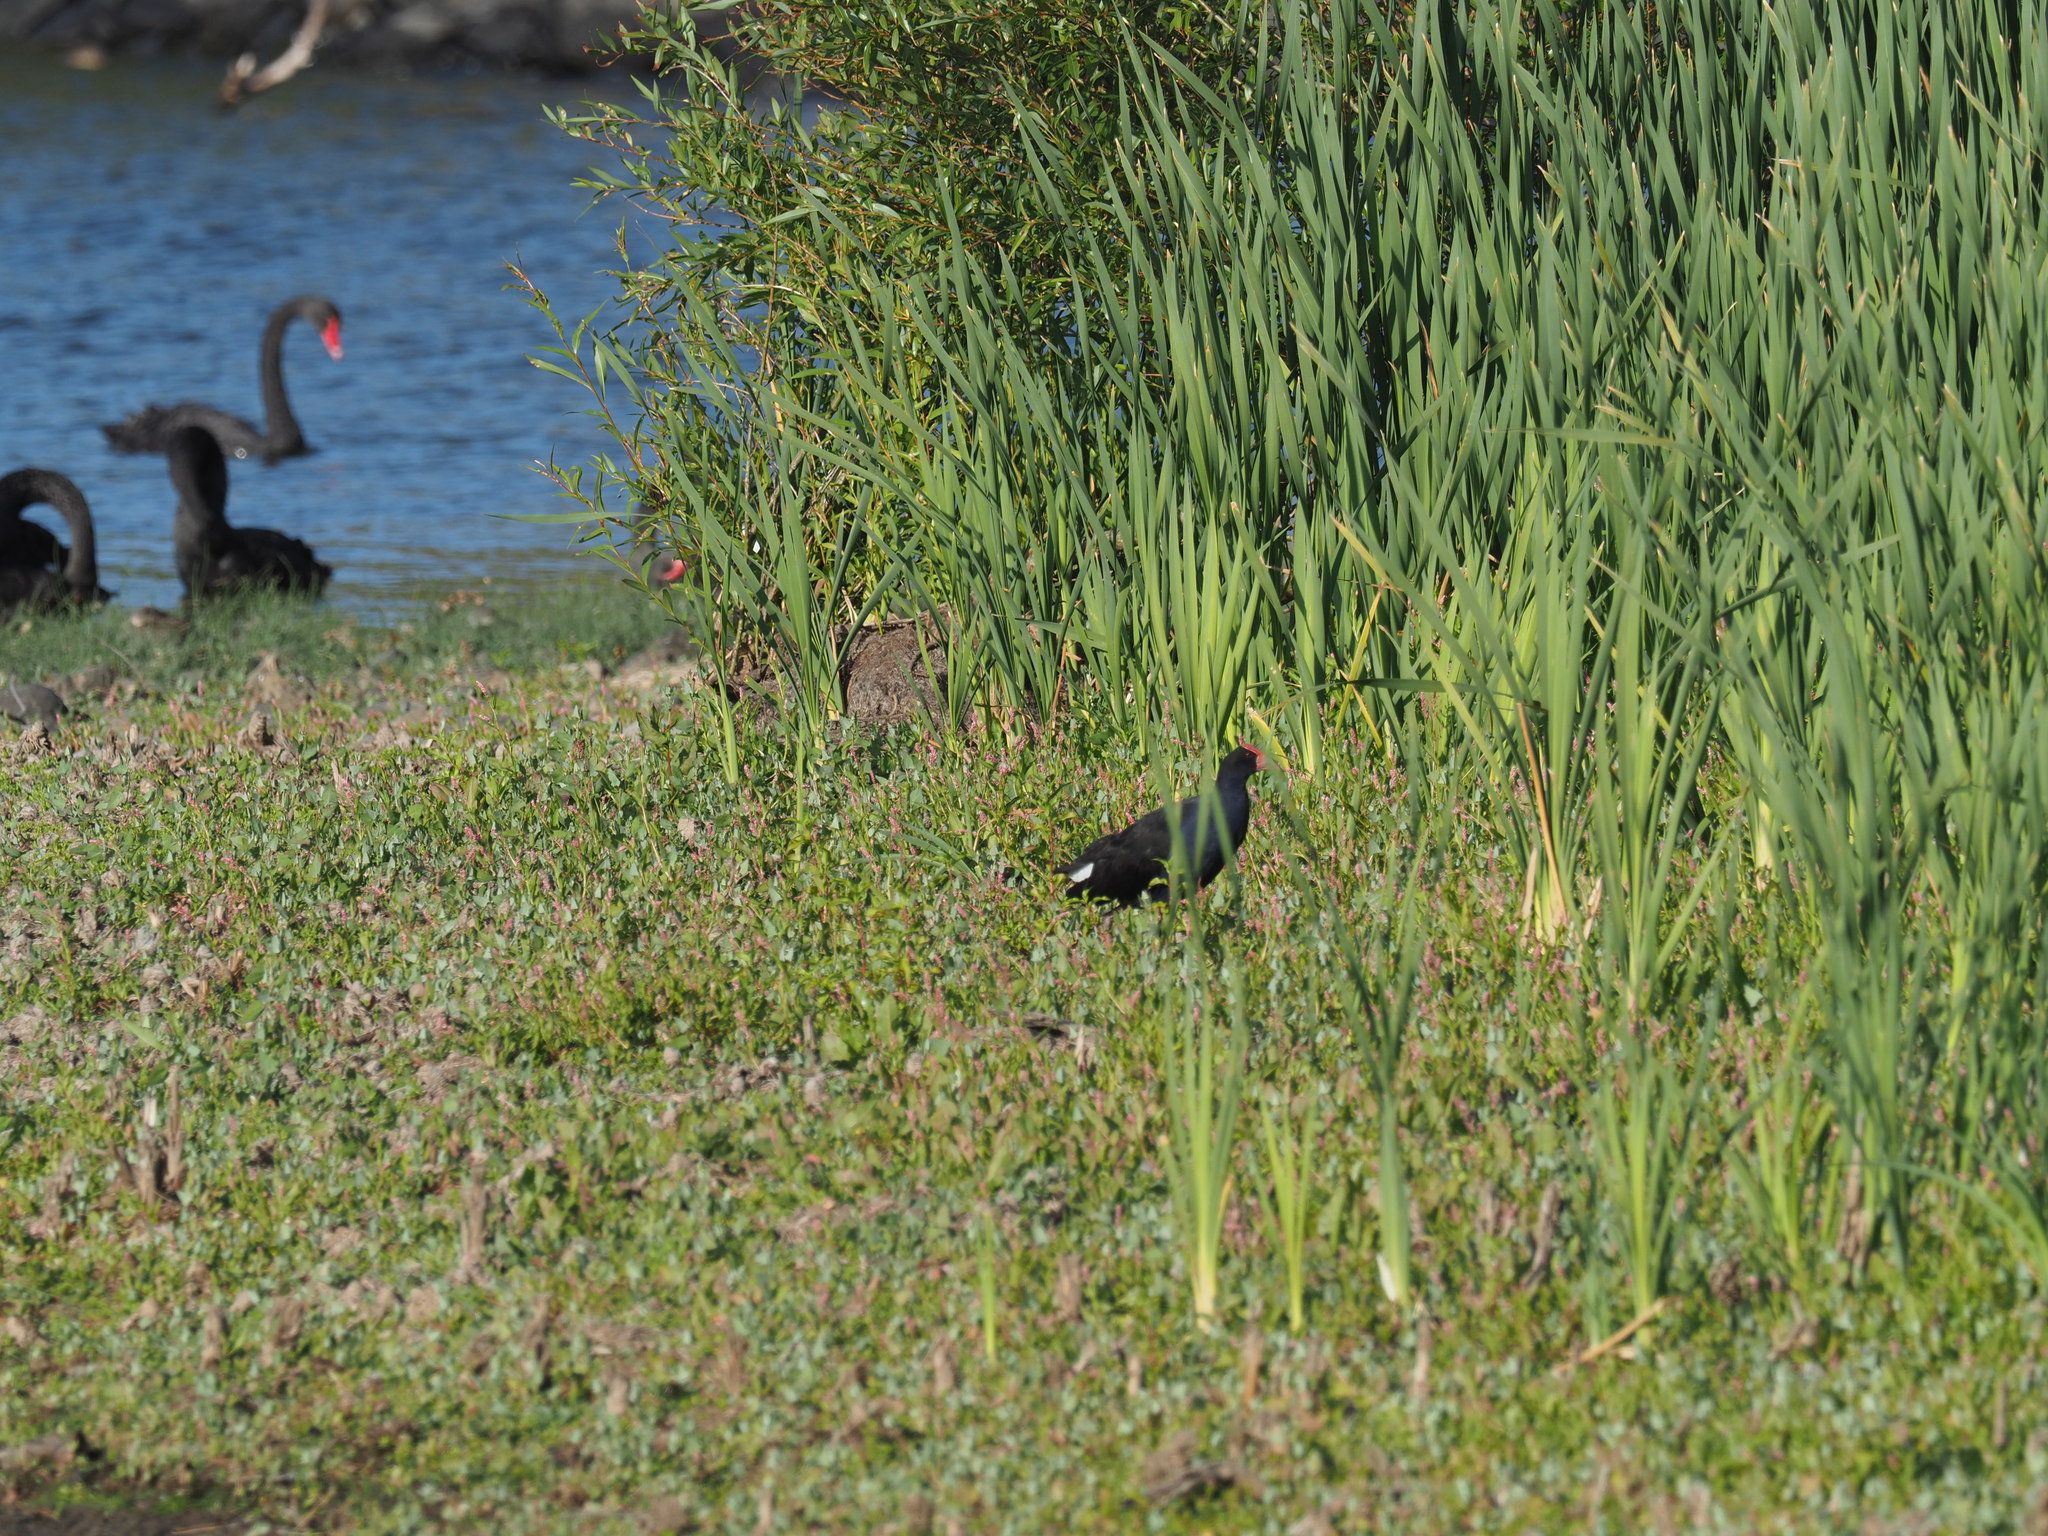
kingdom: Animalia
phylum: Chordata
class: Aves
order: Gruiformes
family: Rallidae
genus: Porphyrio
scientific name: Porphyrio melanotus
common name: Australasian swamphen
